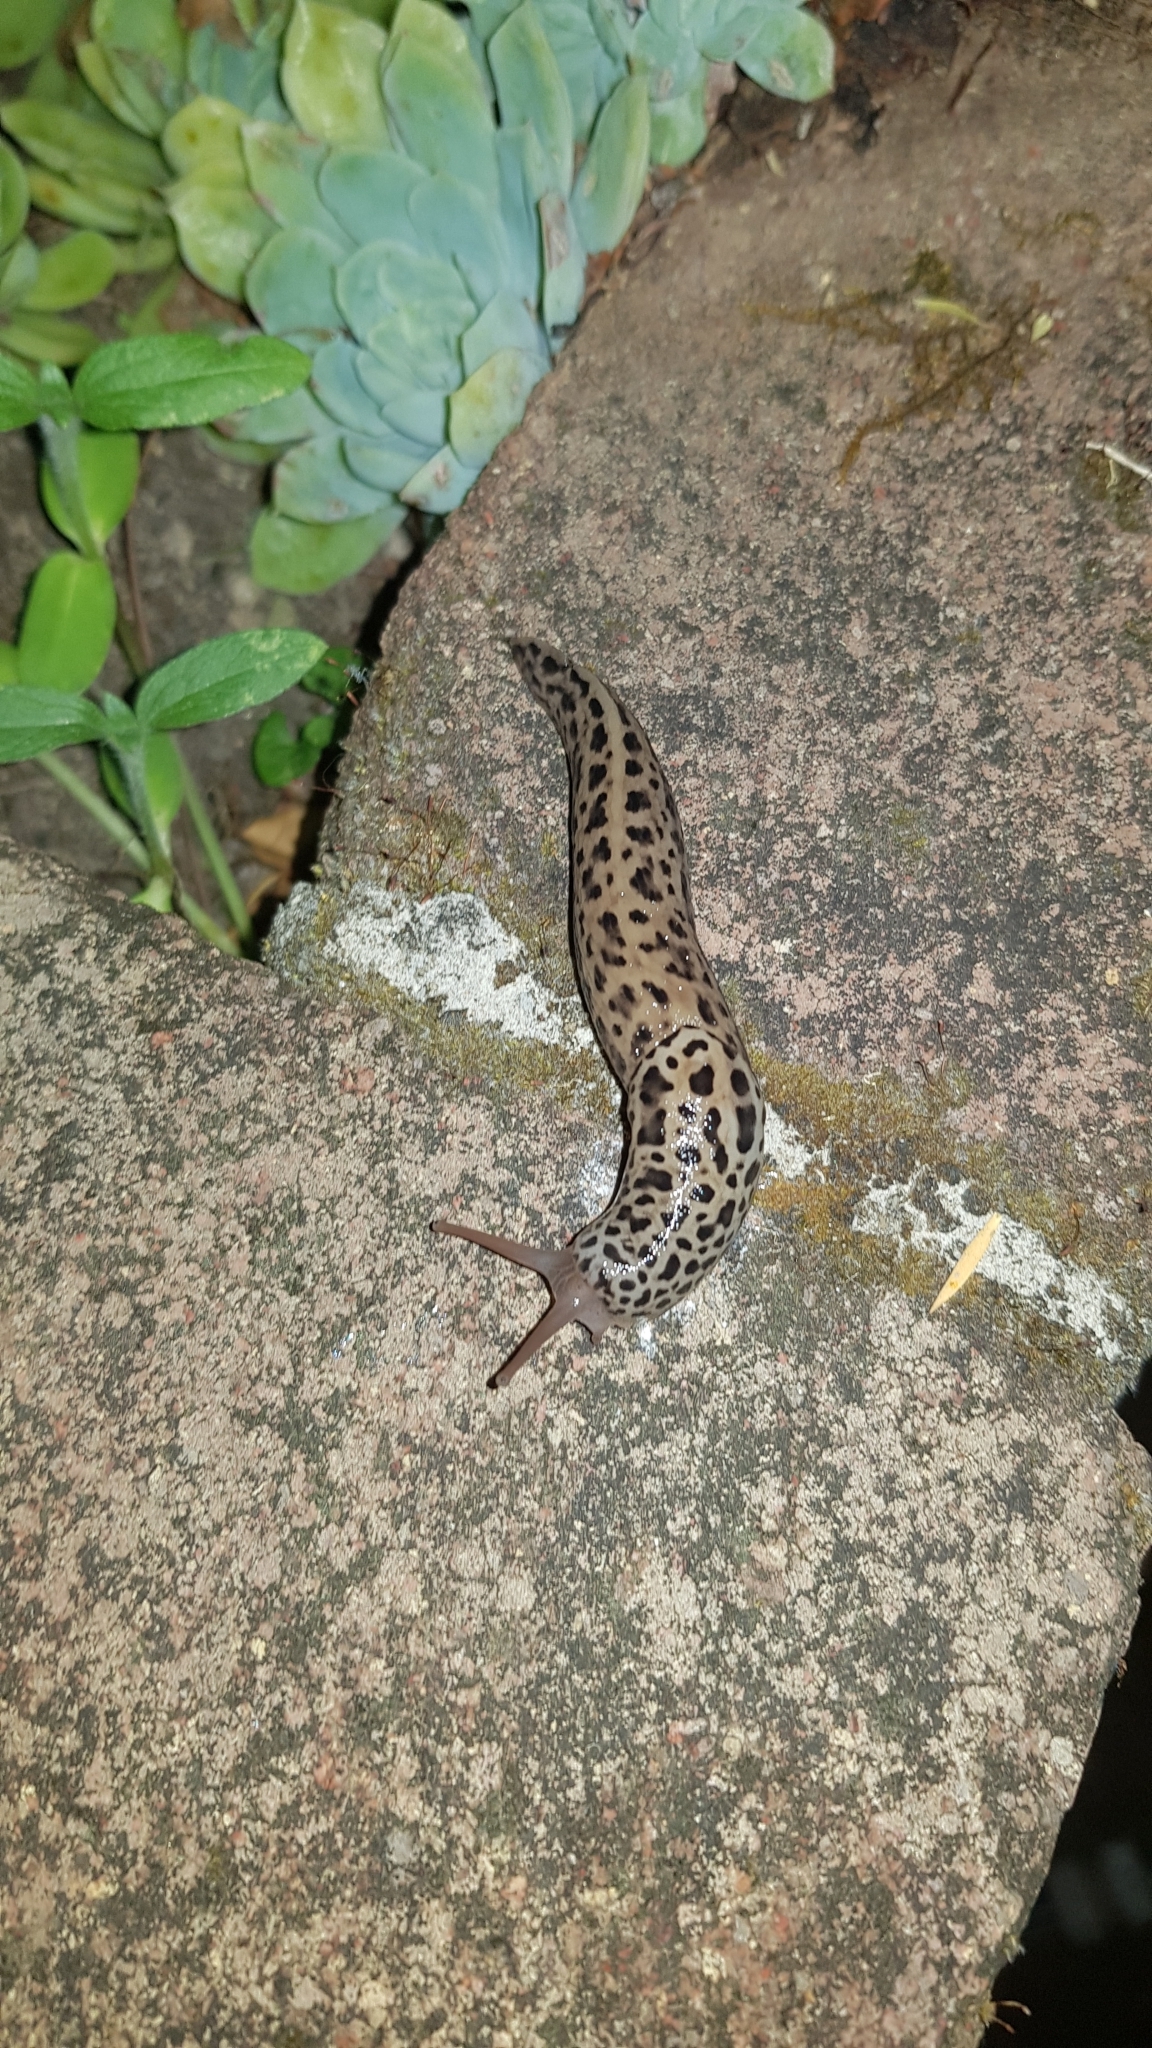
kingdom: Animalia
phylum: Mollusca
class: Gastropoda
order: Stylommatophora
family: Limacidae
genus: Limax
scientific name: Limax maximus
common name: Great grey slug
